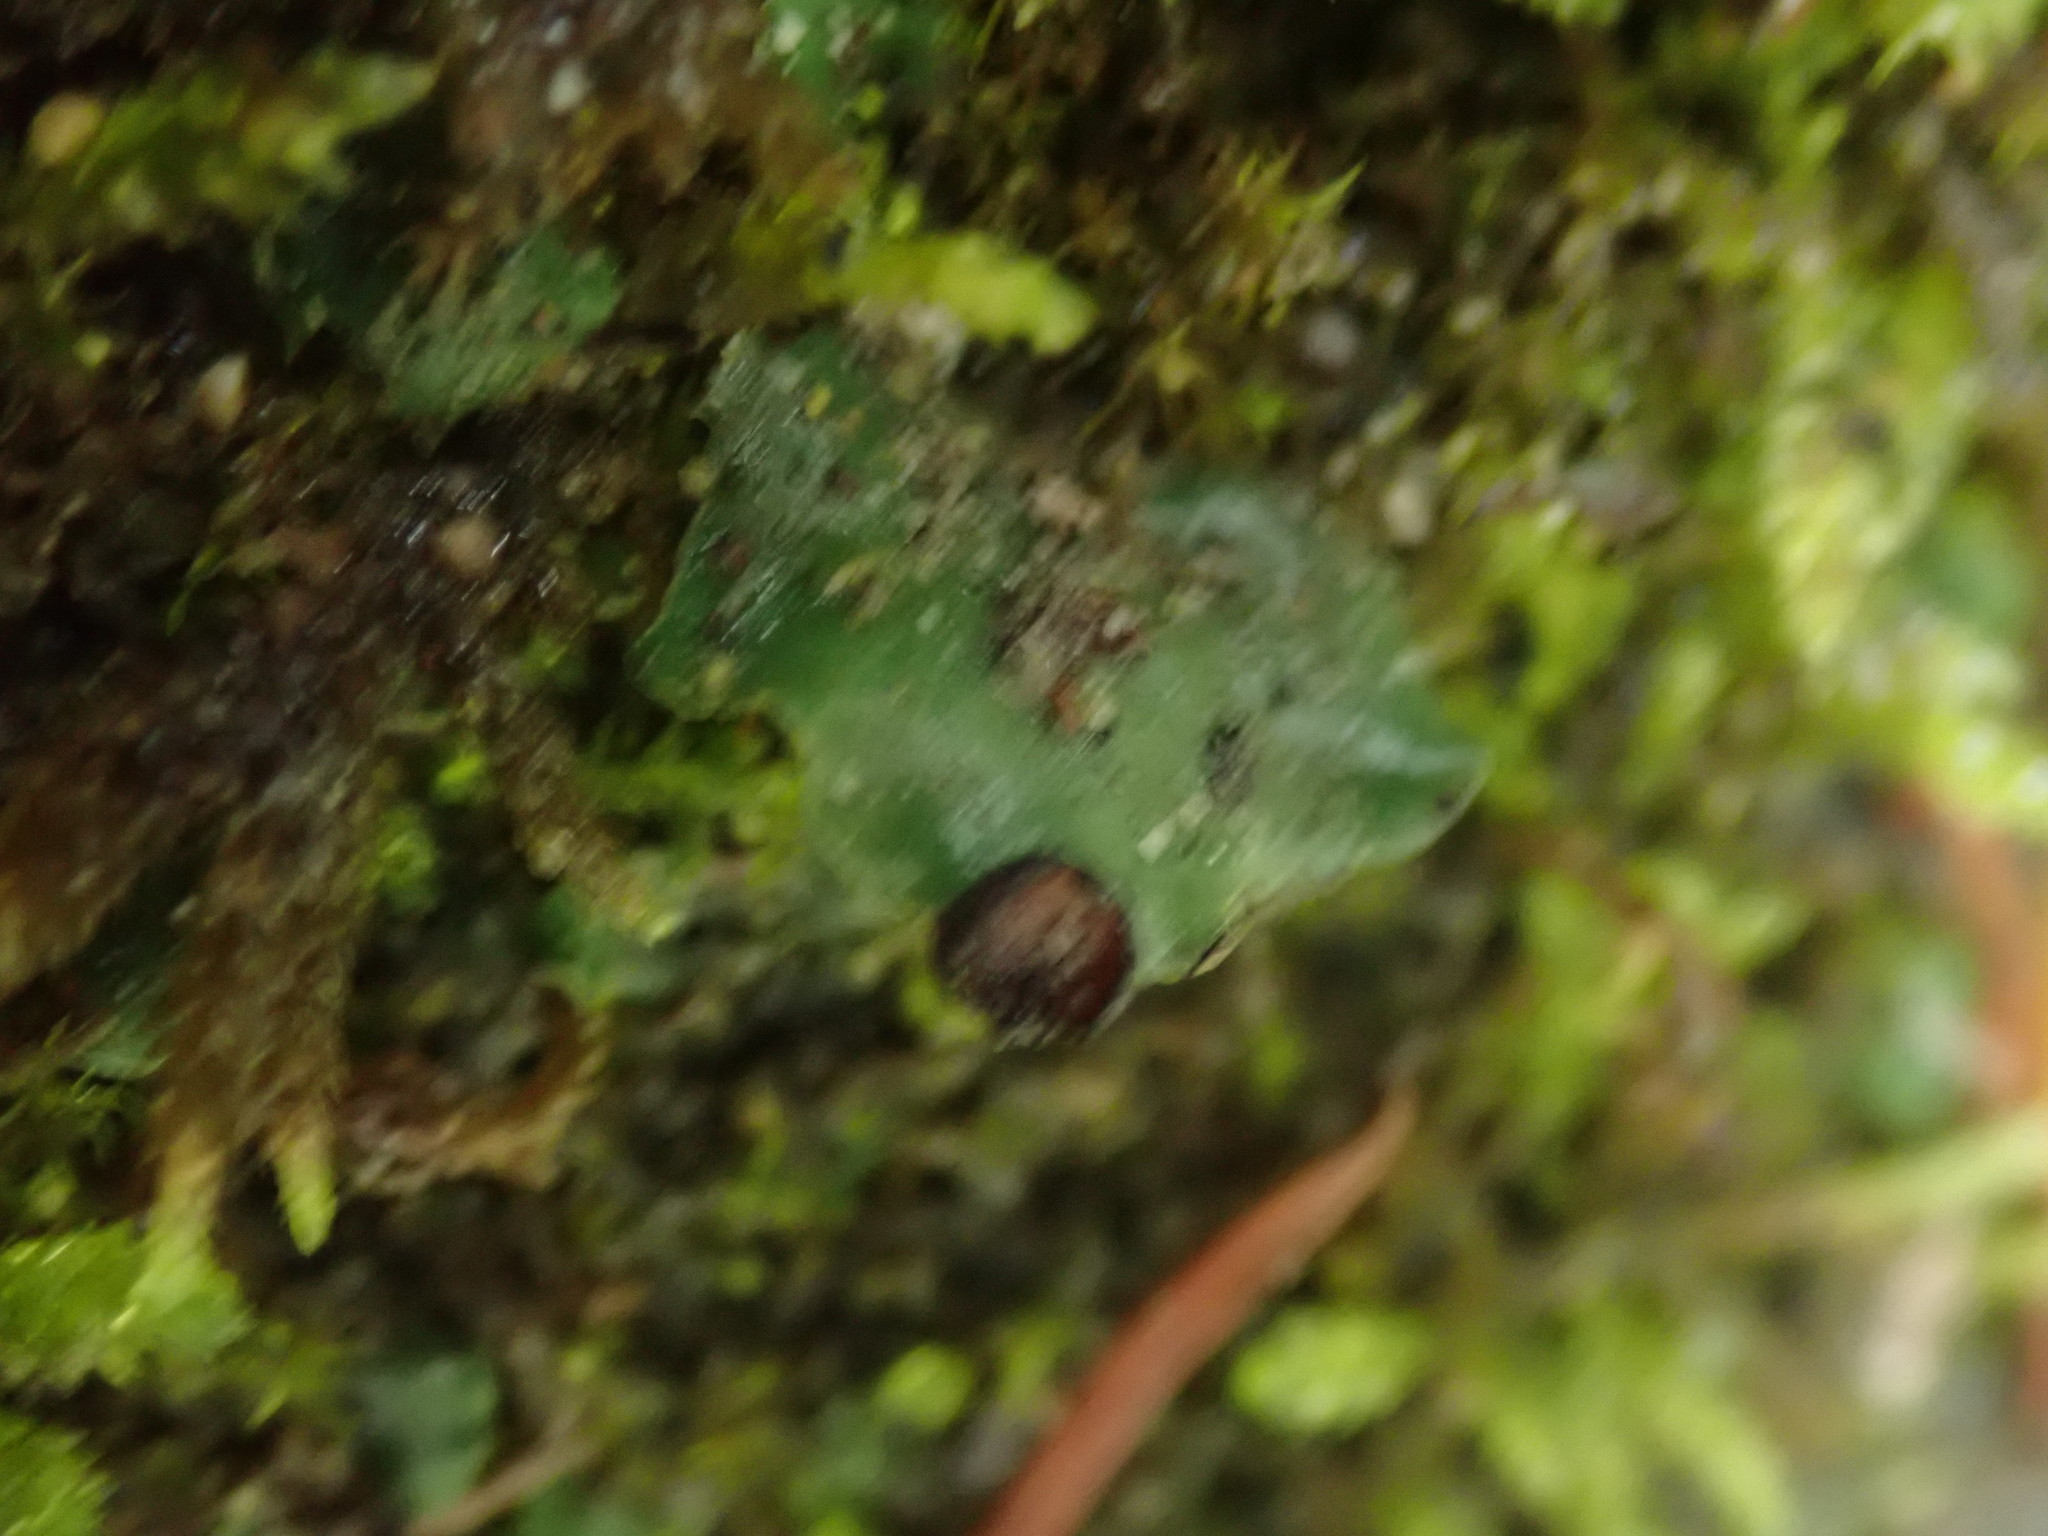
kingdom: Fungi
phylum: Ascomycota
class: Lecanoromycetes
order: Peltigerales
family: Peltigeraceae
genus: Peltigera
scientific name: Peltigera venosa
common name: Pixie gowns lichen
